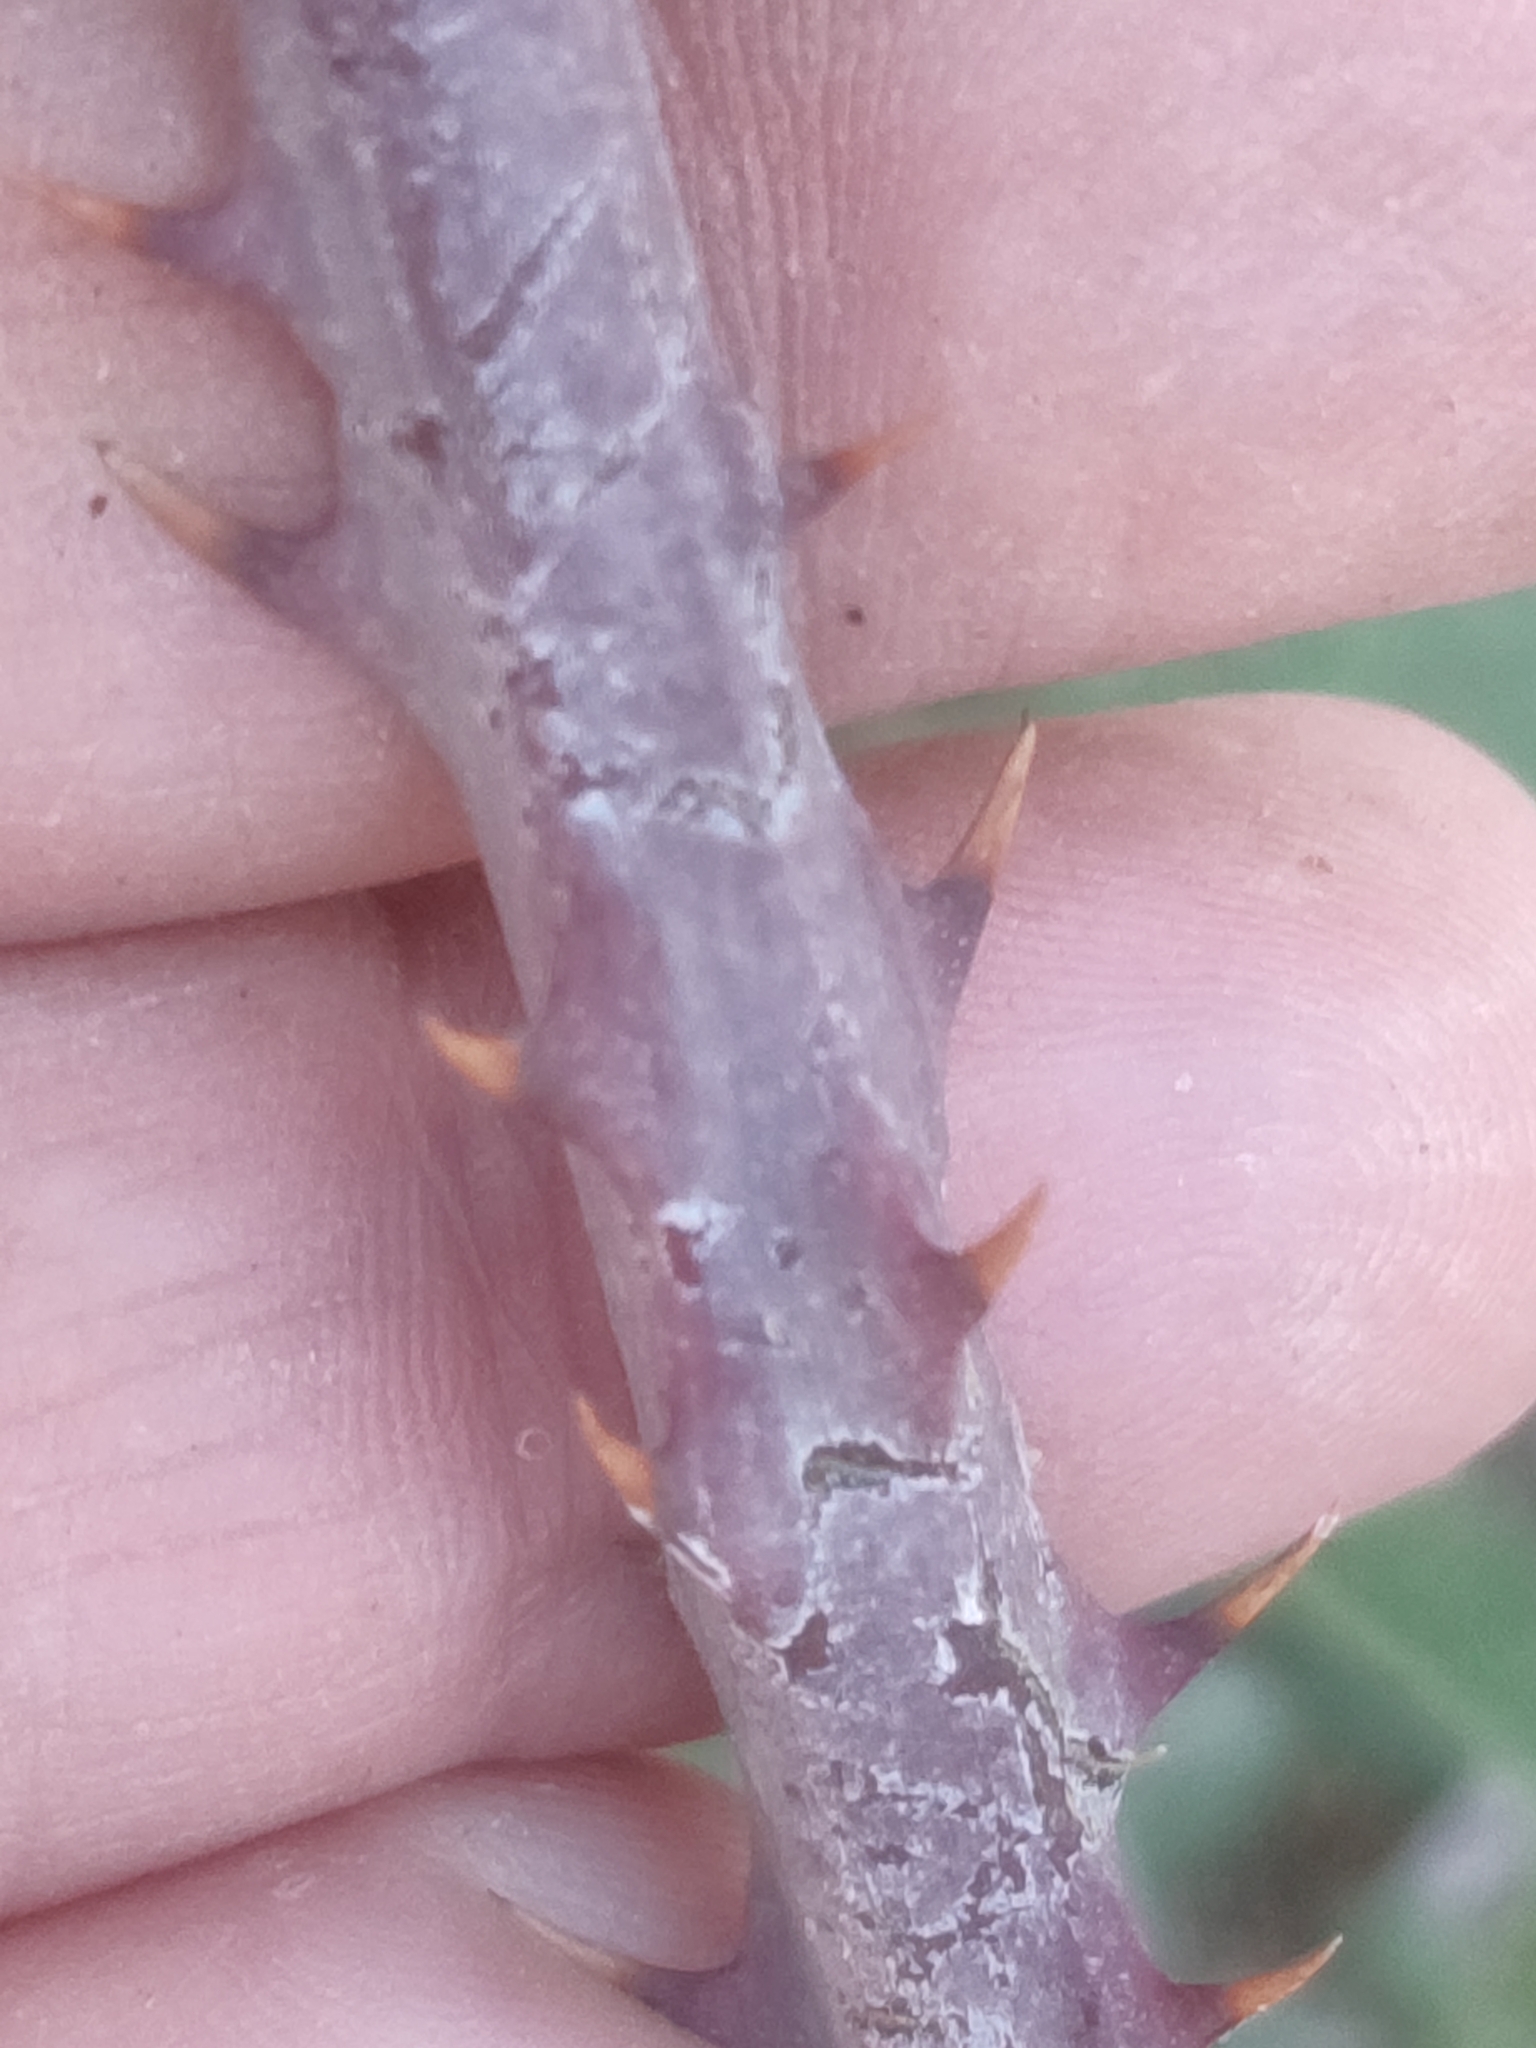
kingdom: Plantae
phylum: Tracheophyta
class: Magnoliopsida
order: Rosales
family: Rosaceae
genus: Rubus
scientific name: Rubus ulmifolius
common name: Elmleaf blackberry
